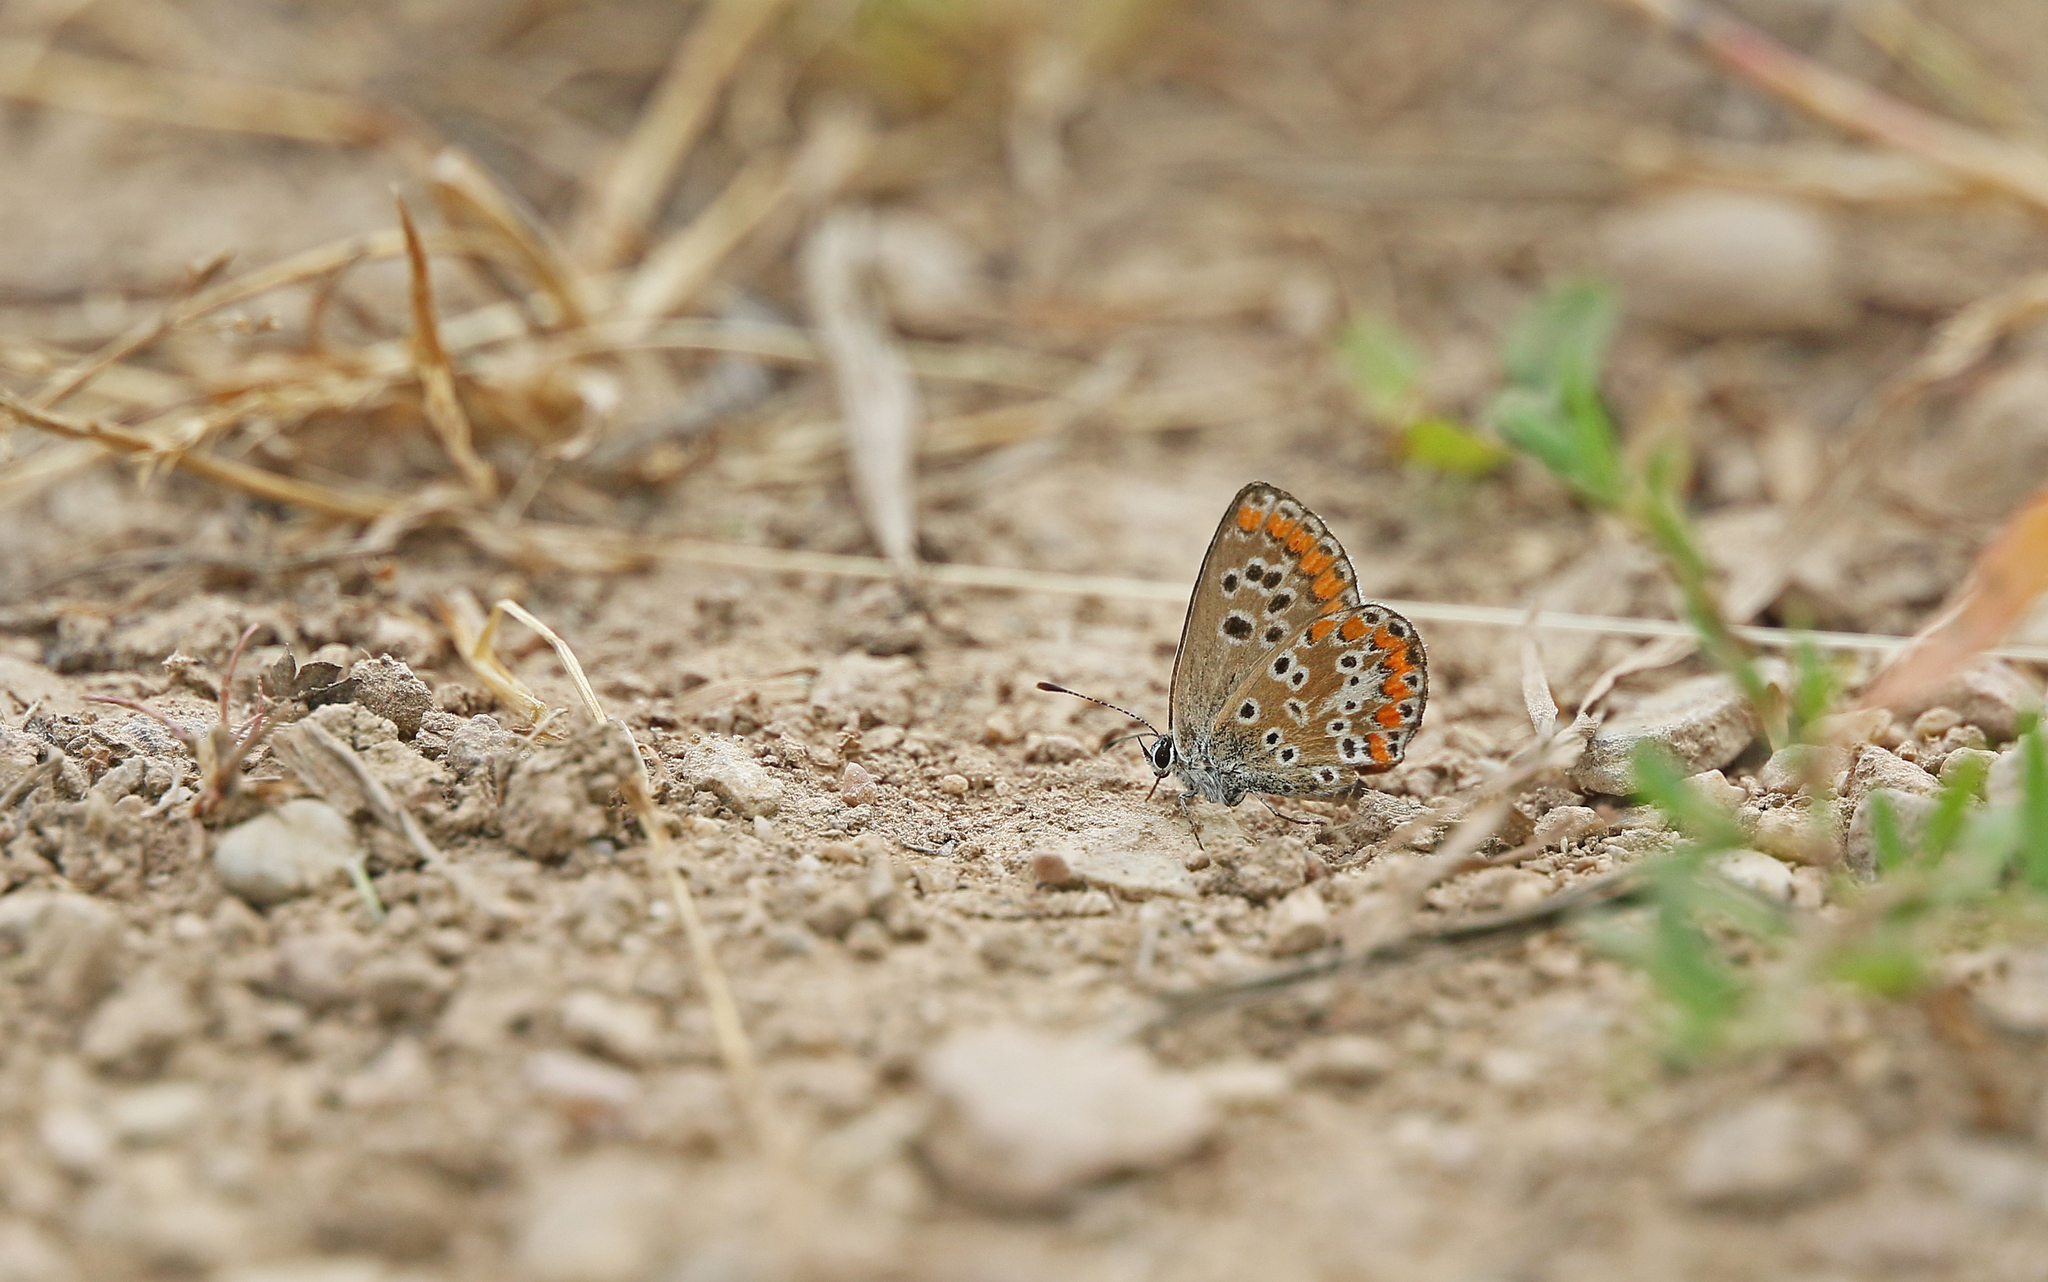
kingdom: Animalia
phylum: Arthropoda
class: Insecta
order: Lepidoptera
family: Lycaenidae
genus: Aricia
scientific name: Aricia cramera
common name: Eschscholtz´s brown  argus
